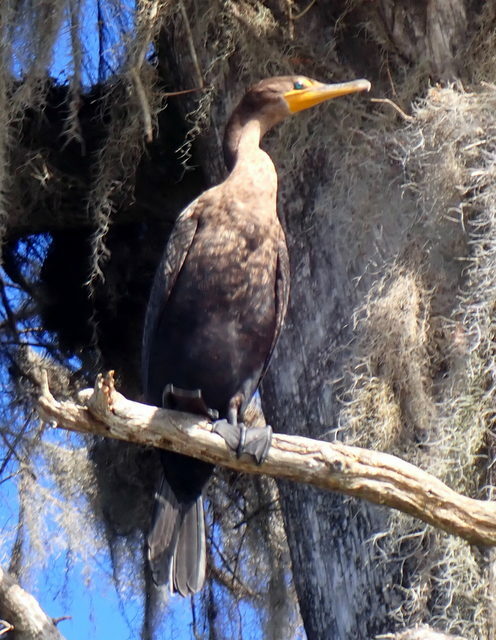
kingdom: Animalia
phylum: Chordata
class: Aves
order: Suliformes
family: Phalacrocoracidae
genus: Phalacrocorax
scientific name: Phalacrocorax auritus
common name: Double-crested cormorant
